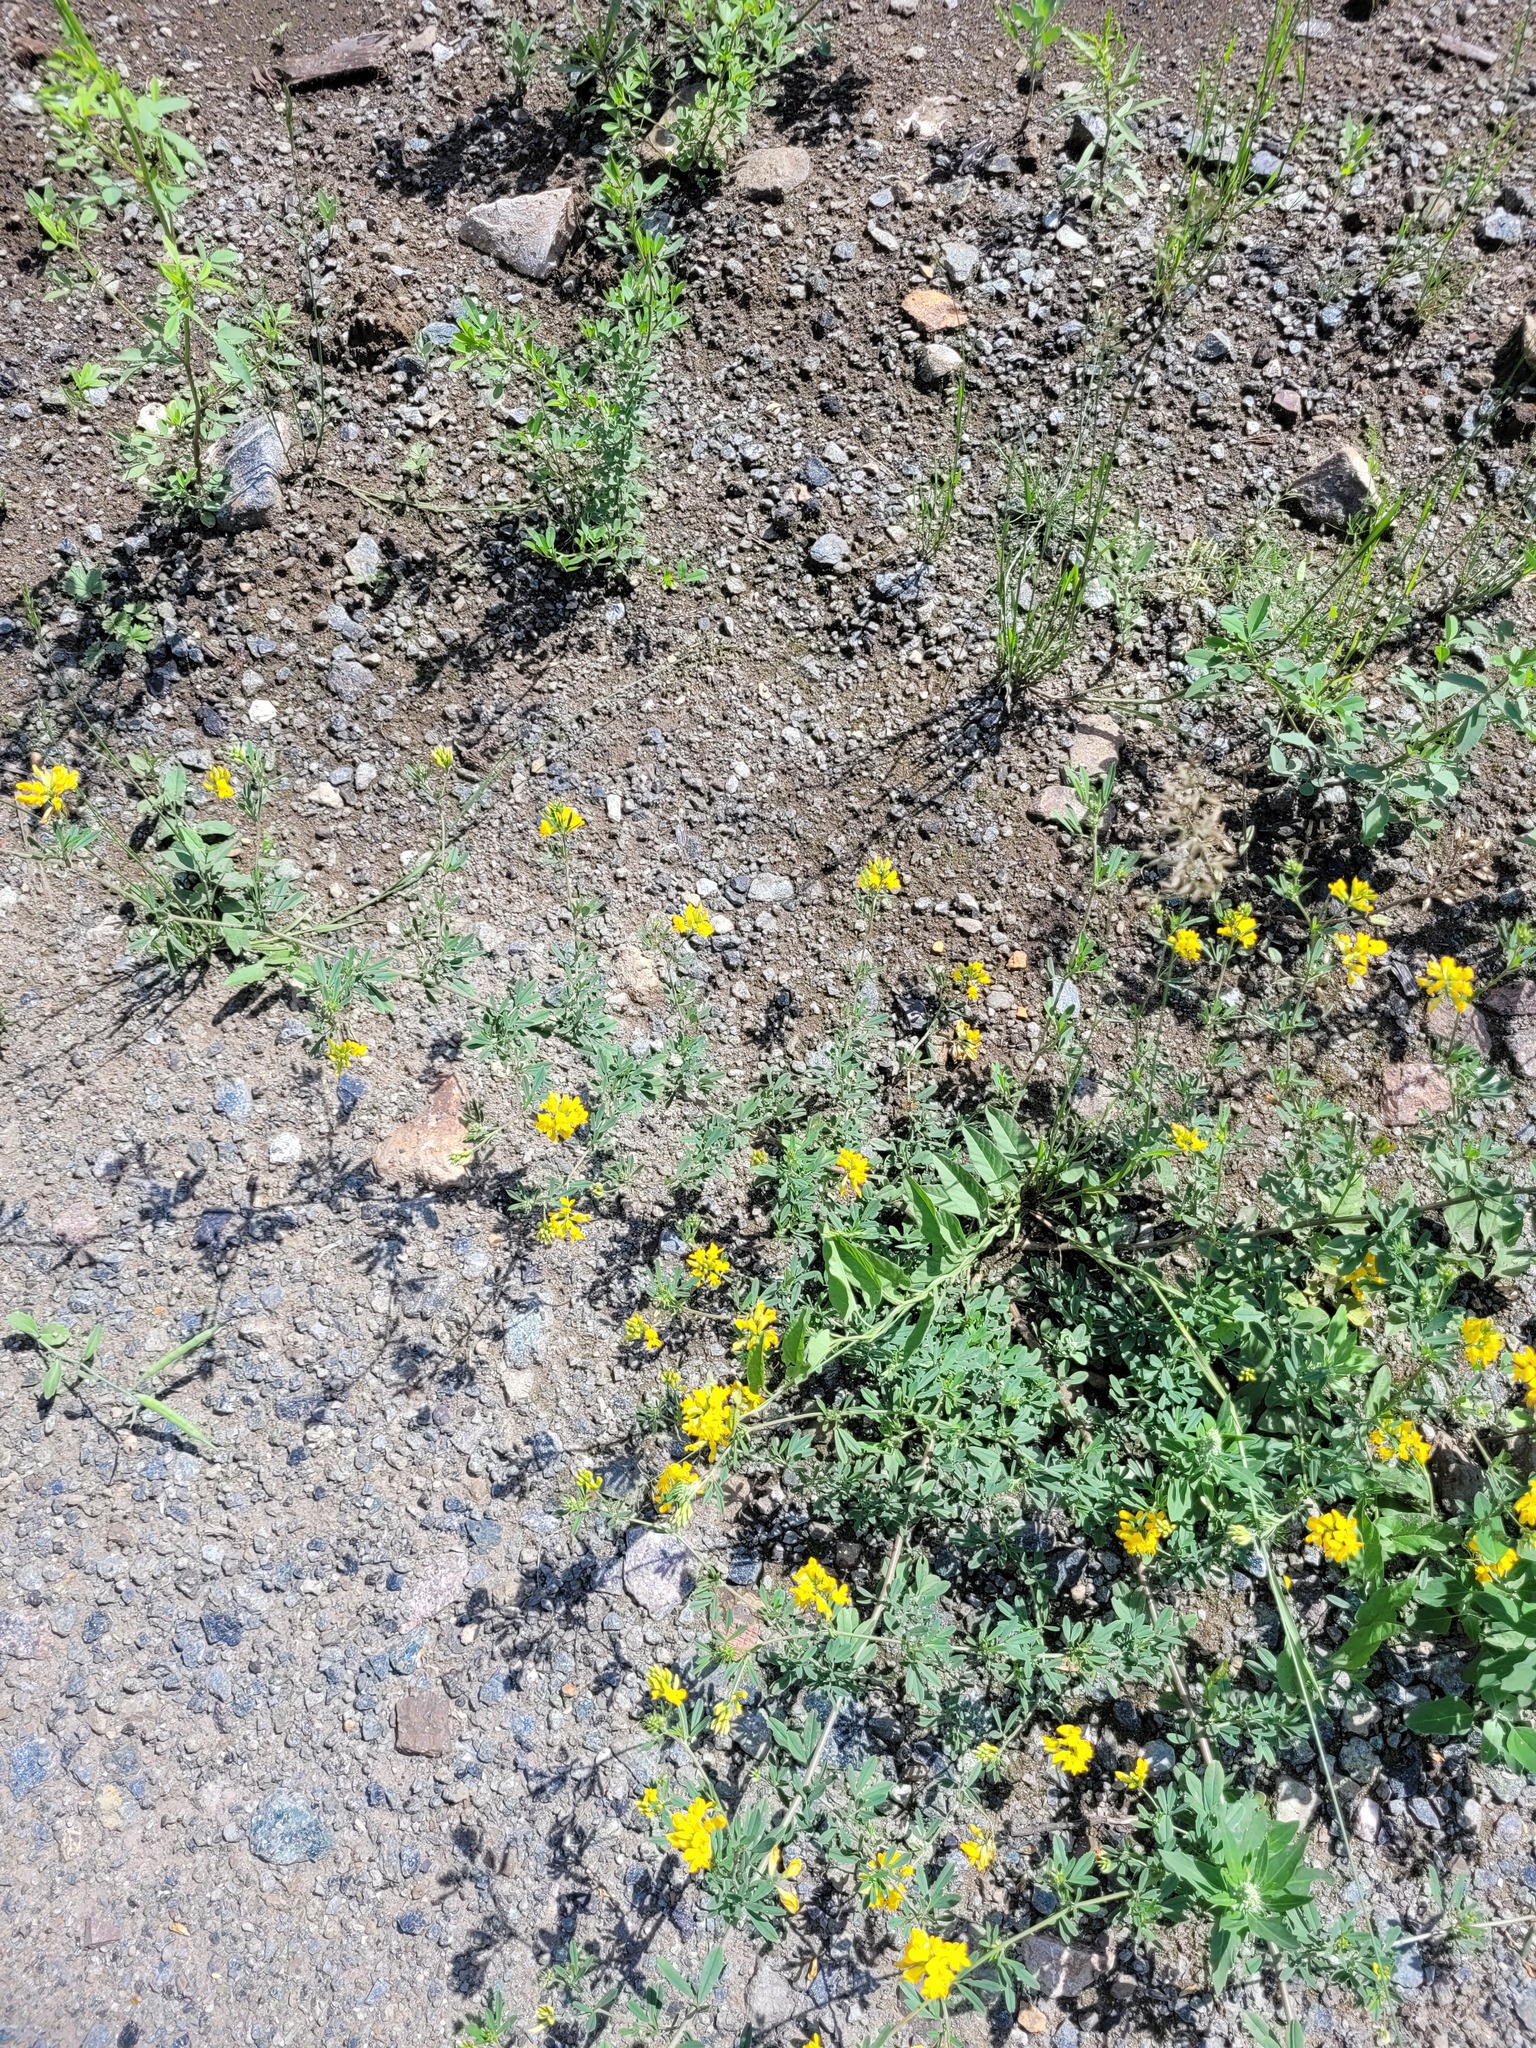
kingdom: Plantae
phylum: Tracheophyta
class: Magnoliopsida
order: Fabales
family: Fabaceae
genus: Medicago
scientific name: Medicago falcata
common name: Sickle medick
